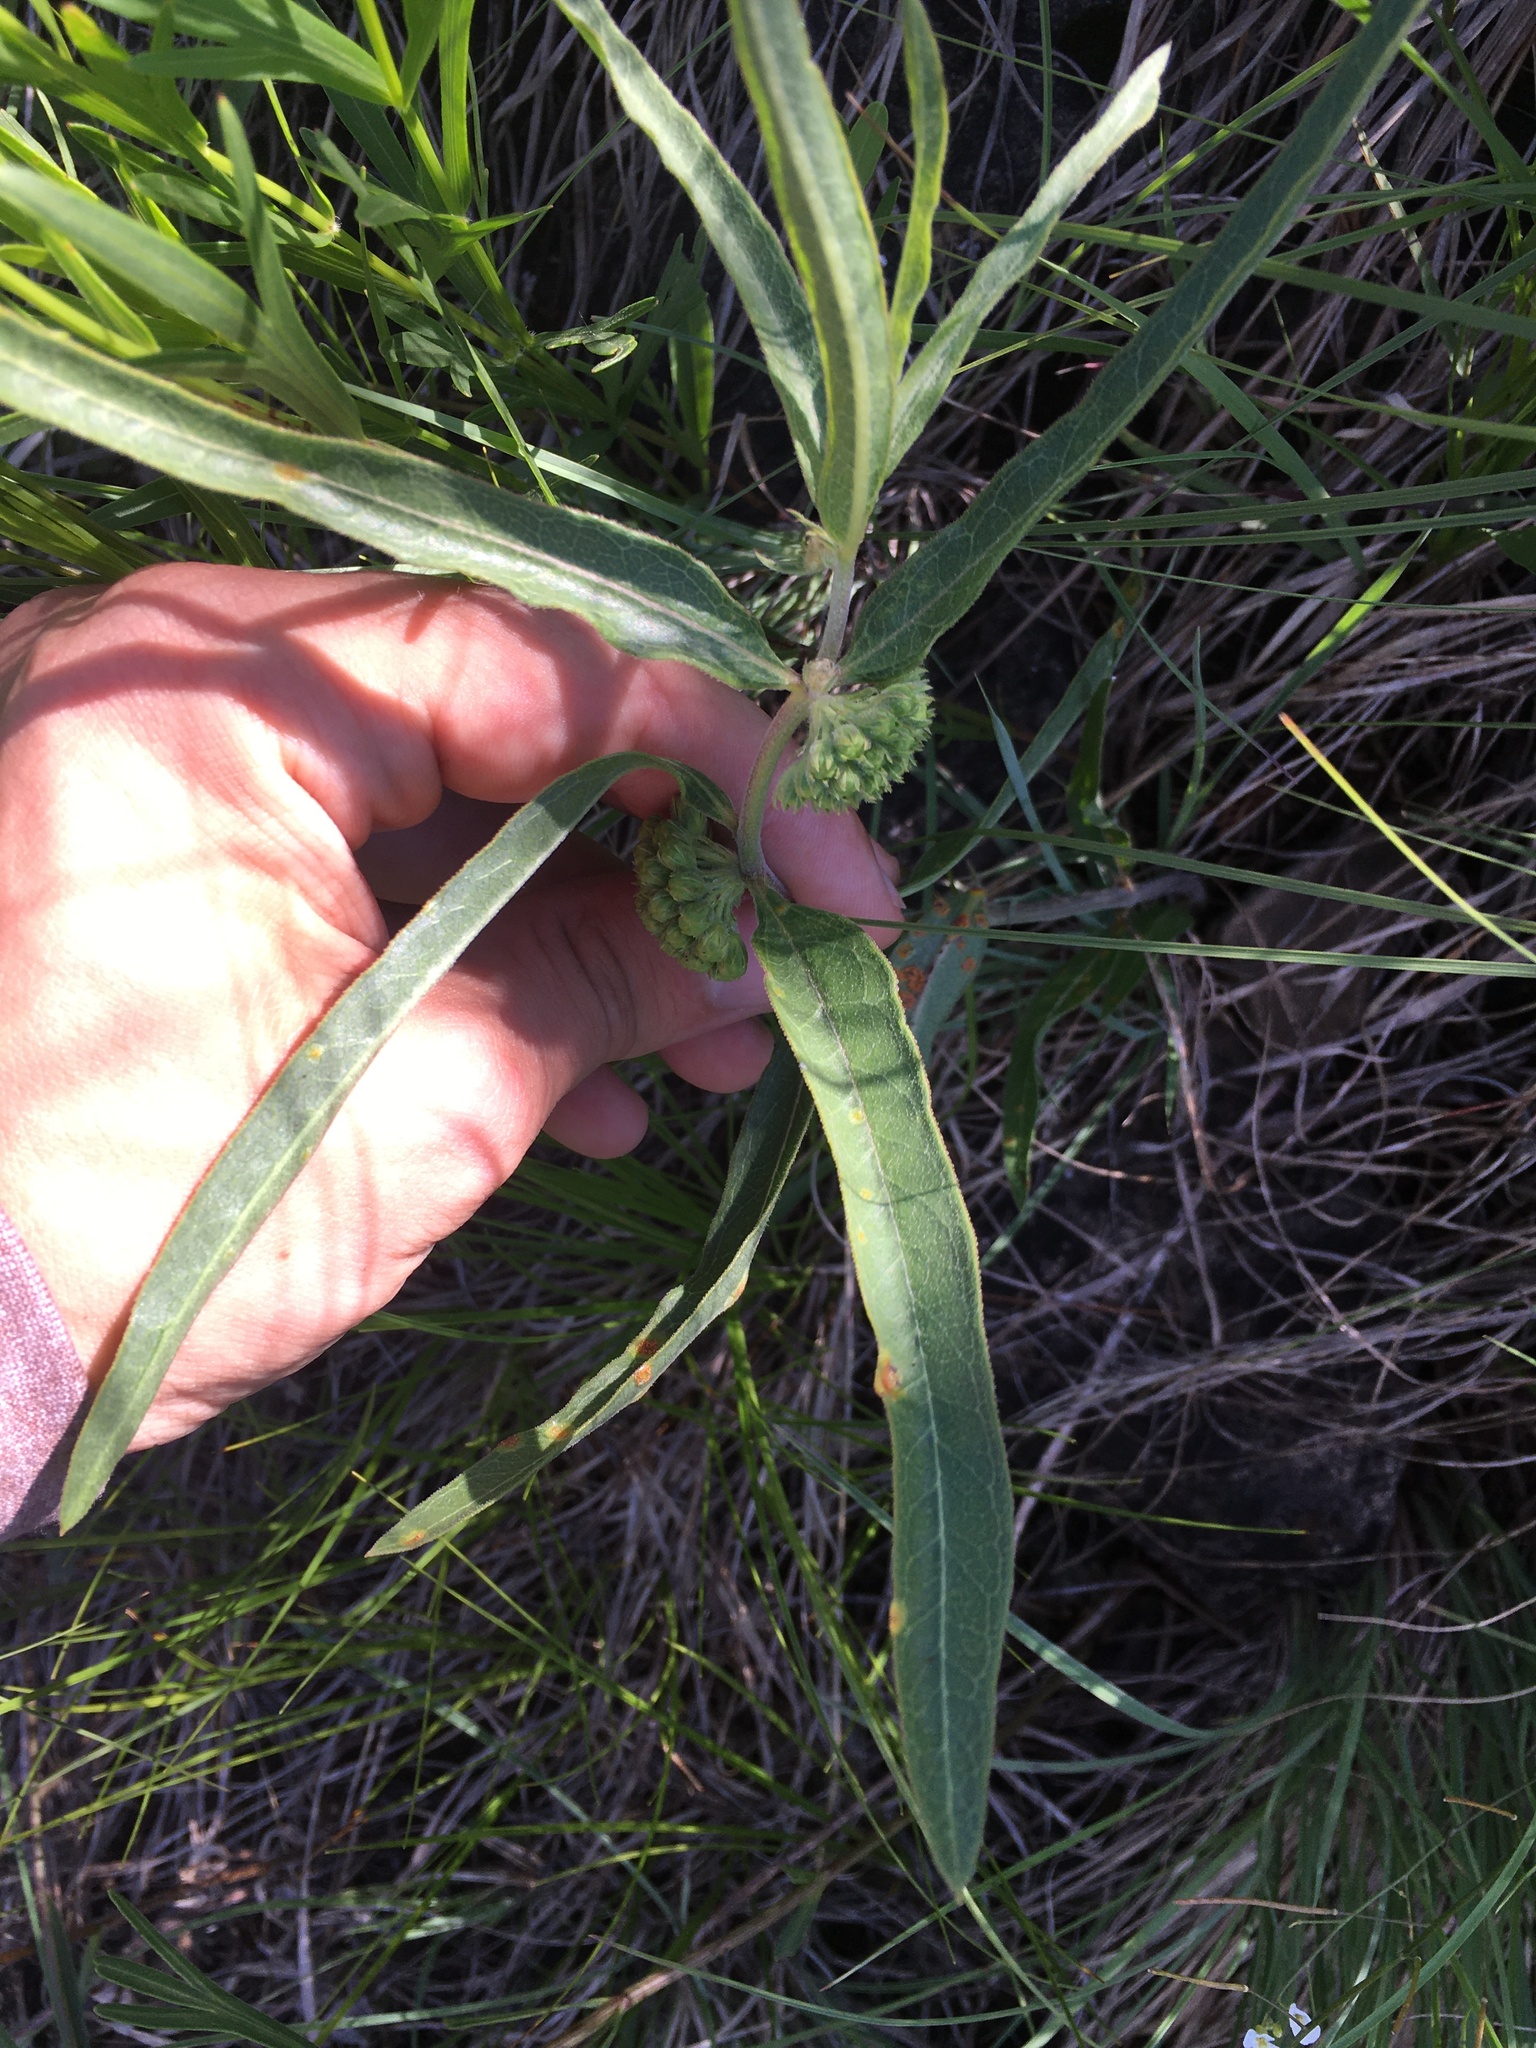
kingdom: Plantae
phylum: Tracheophyta
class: Magnoliopsida
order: Gentianales
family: Apocynaceae
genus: Asclepias
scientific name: Asclepias viridiflora
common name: Green comet milkweed
